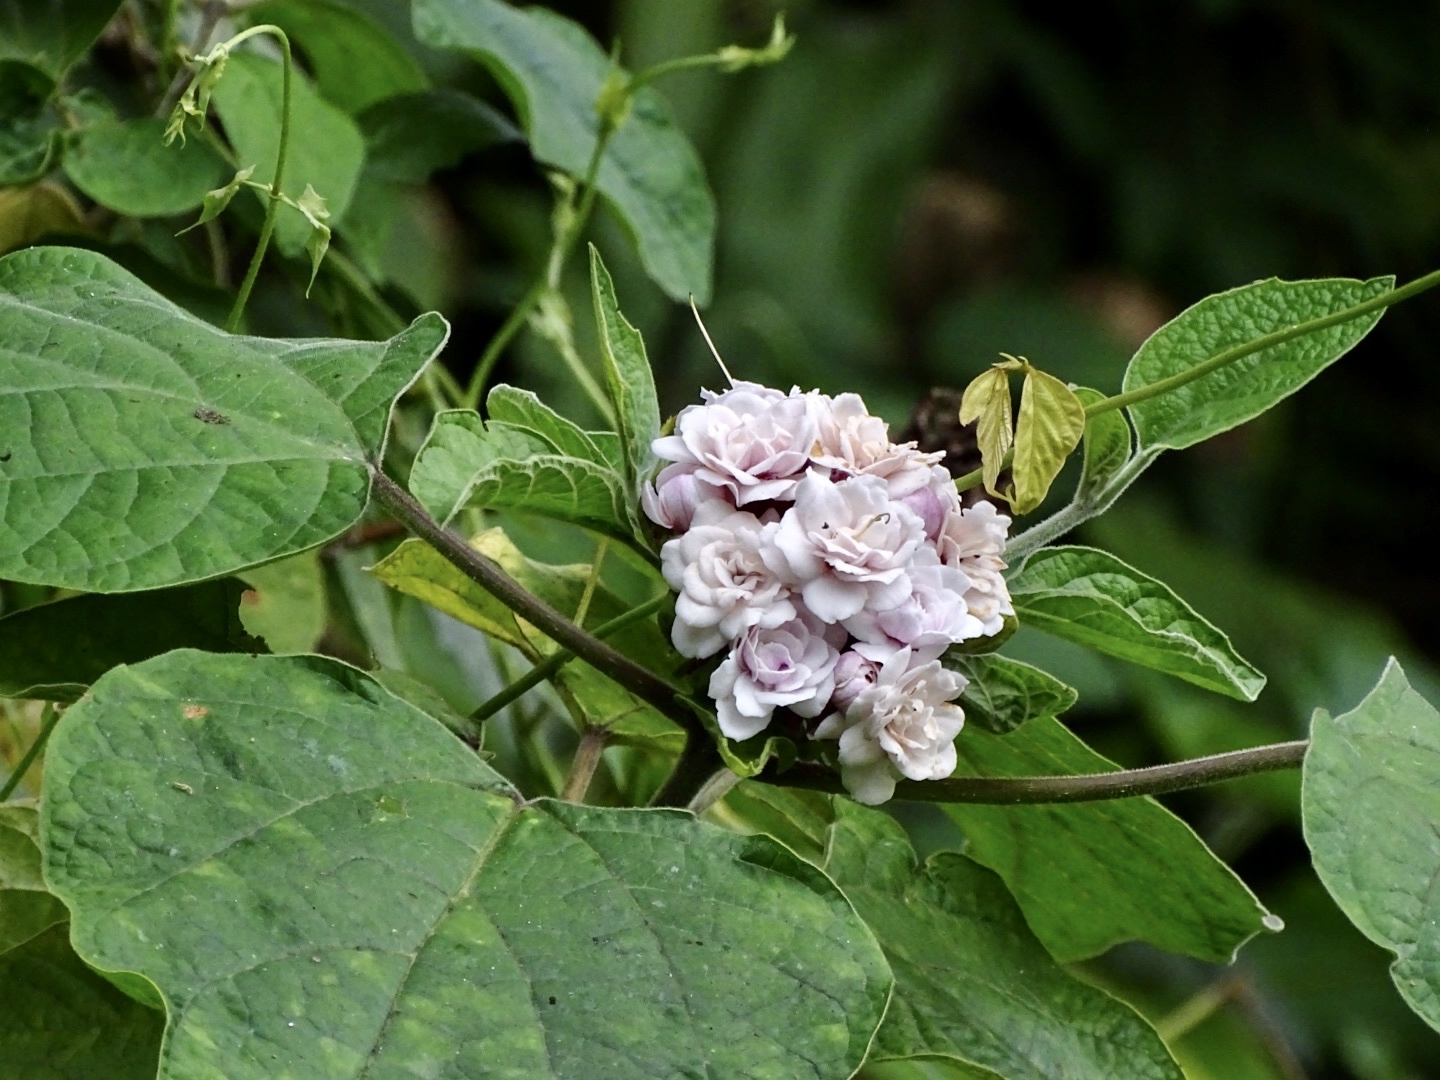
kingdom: Plantae
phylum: Tracheophyta
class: Magnoliopsida
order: Lamiales
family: Lamiaceae
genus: Clerodendrum
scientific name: Clerodendrum chinense
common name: Stickbush
